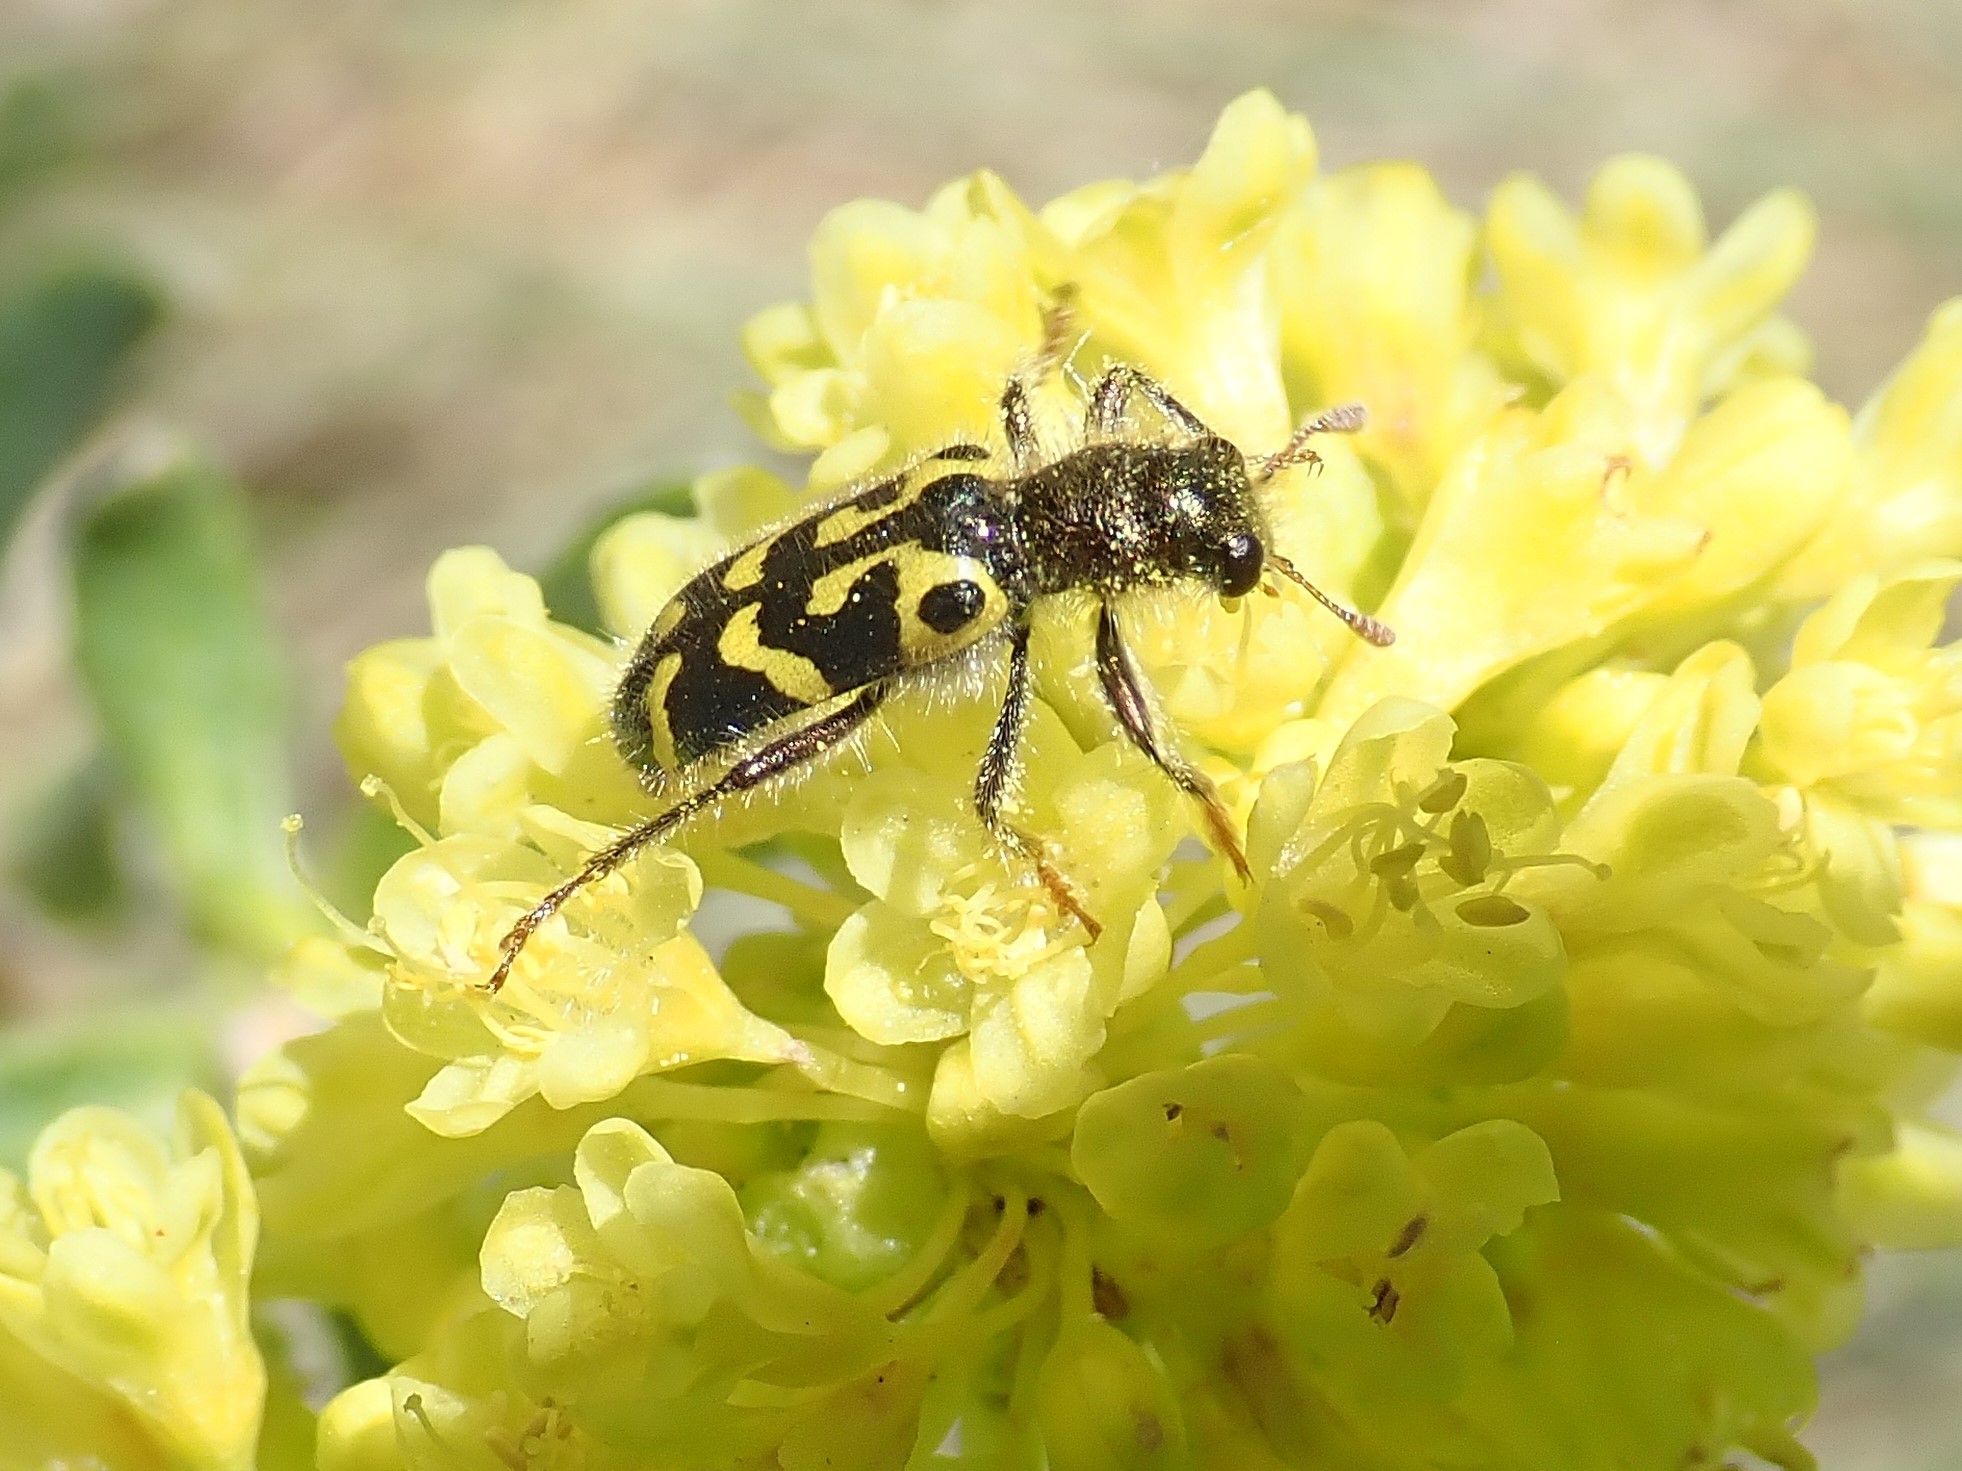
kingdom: Animalia
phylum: Arthropoda
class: Insecta
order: Coleoptera
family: Cleridae
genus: Trichodes
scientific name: Trichodes ornatus
